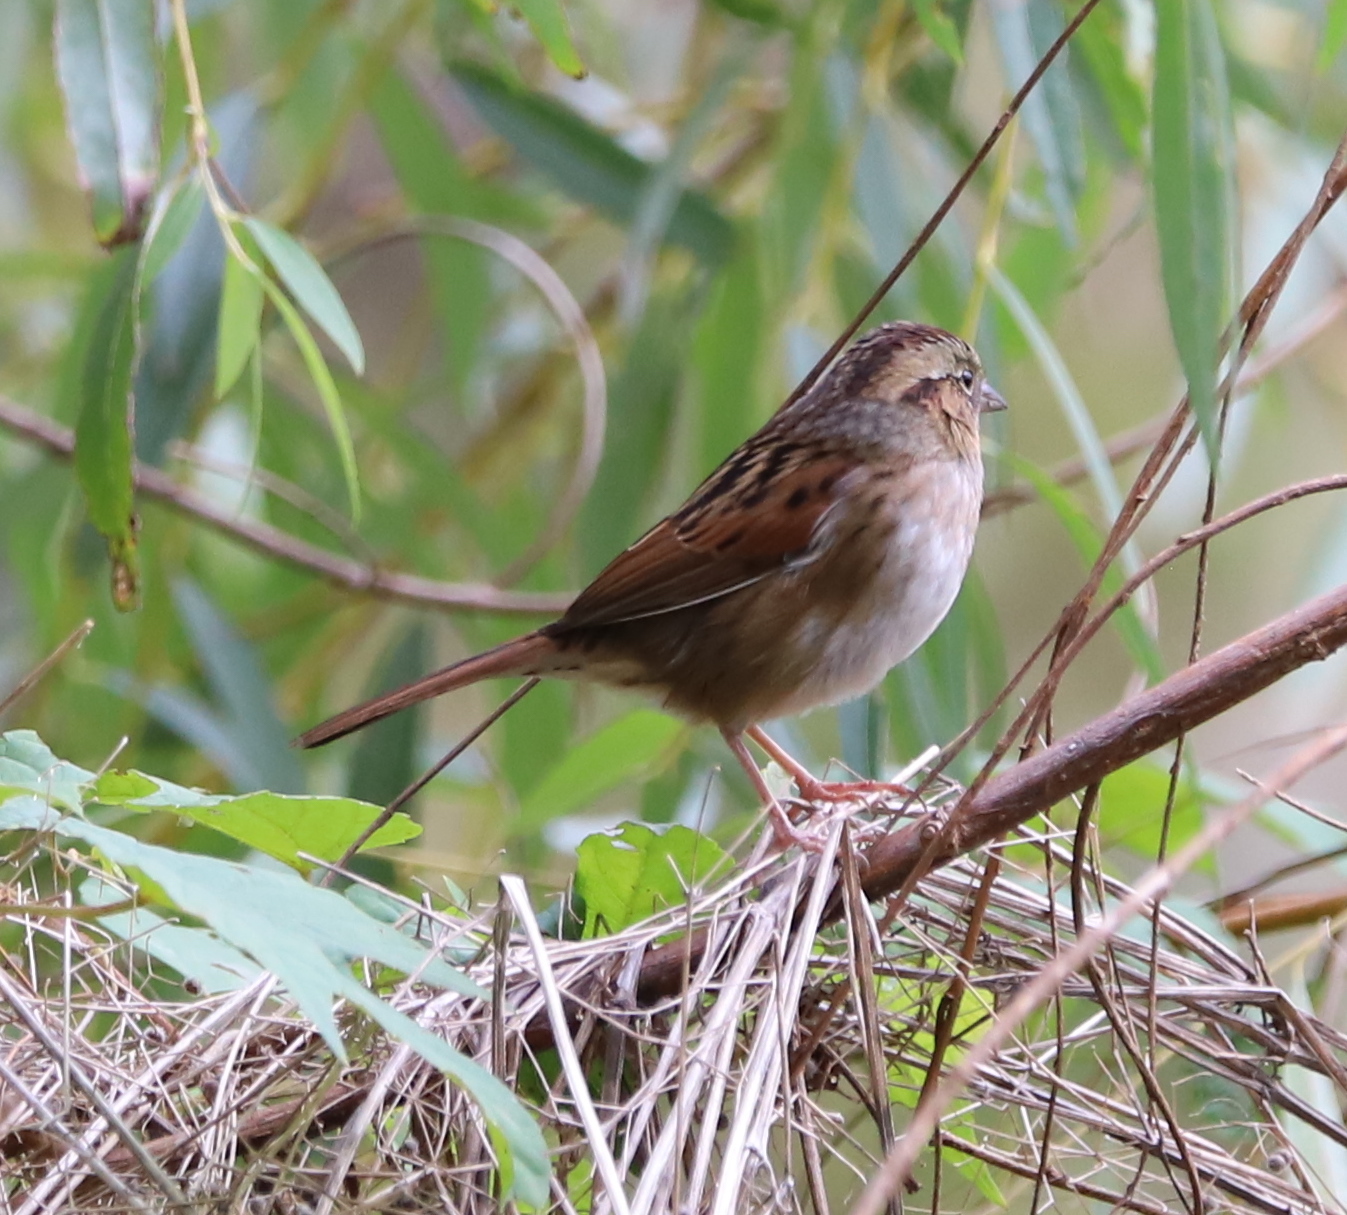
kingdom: Animalia
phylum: Chordata
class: Aves
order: Passeriformes
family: Passerellidae
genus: Melospiza
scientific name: Melospiza georgiana
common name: Swamp sparrow
